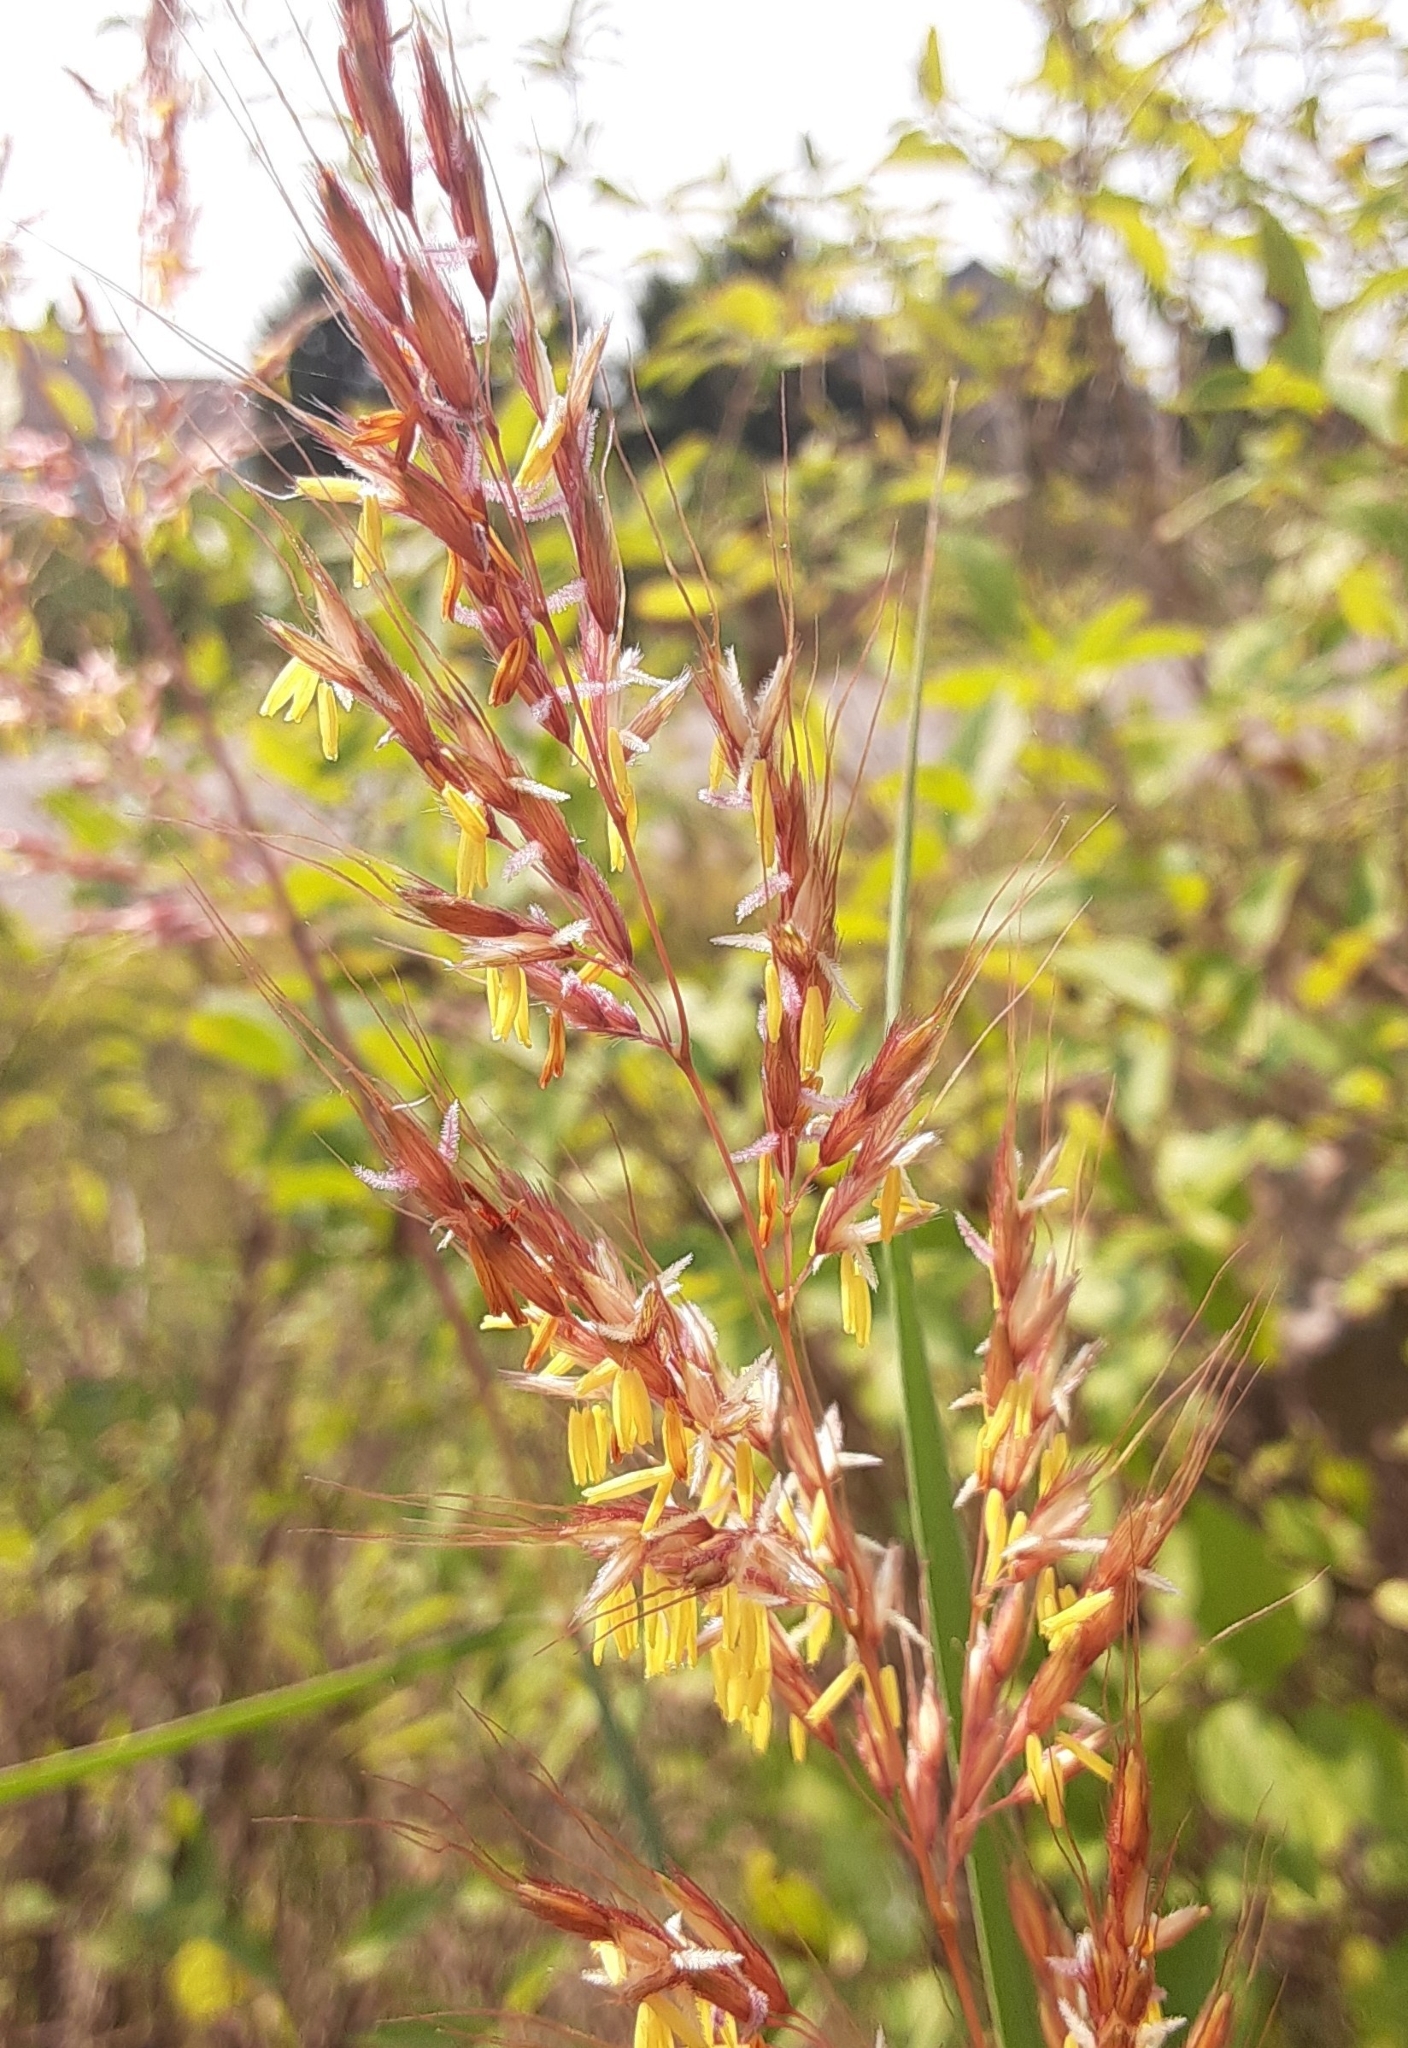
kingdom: Plantae
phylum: Tracheophyta
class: Liliopsida
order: Poales
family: Poaceae
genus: Sorghastrum
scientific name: Sorghastrum nutans
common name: Indian grass
